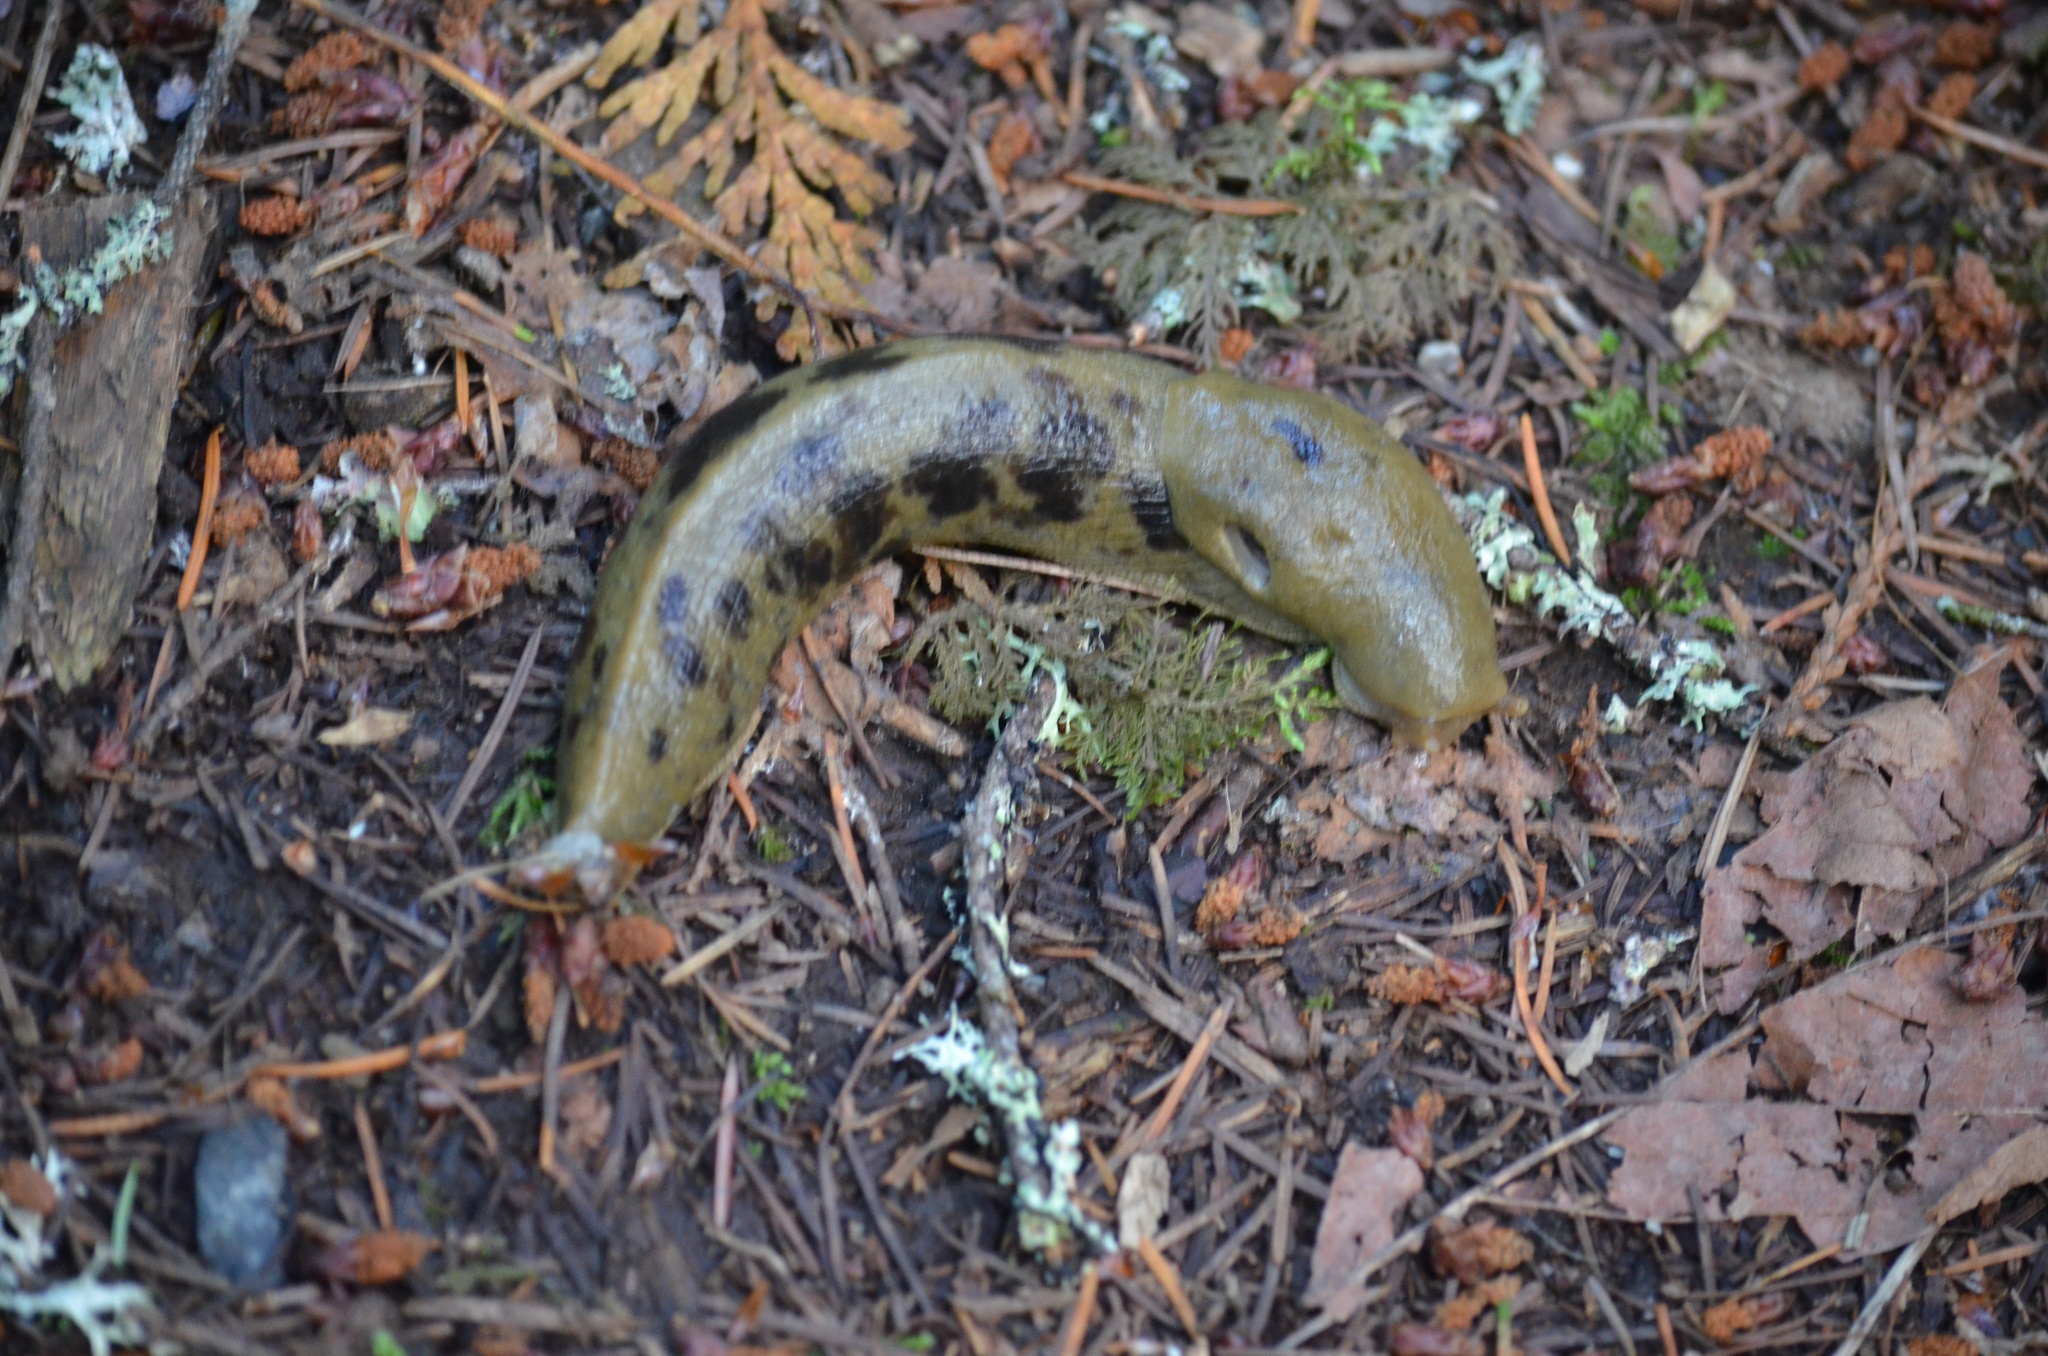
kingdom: Animalia
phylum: Mollusca
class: Gastropoda
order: Stylommatophora
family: Ariolimacidae
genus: Ariolimax
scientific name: Ariolimax columbianus
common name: Pacific banana slug
